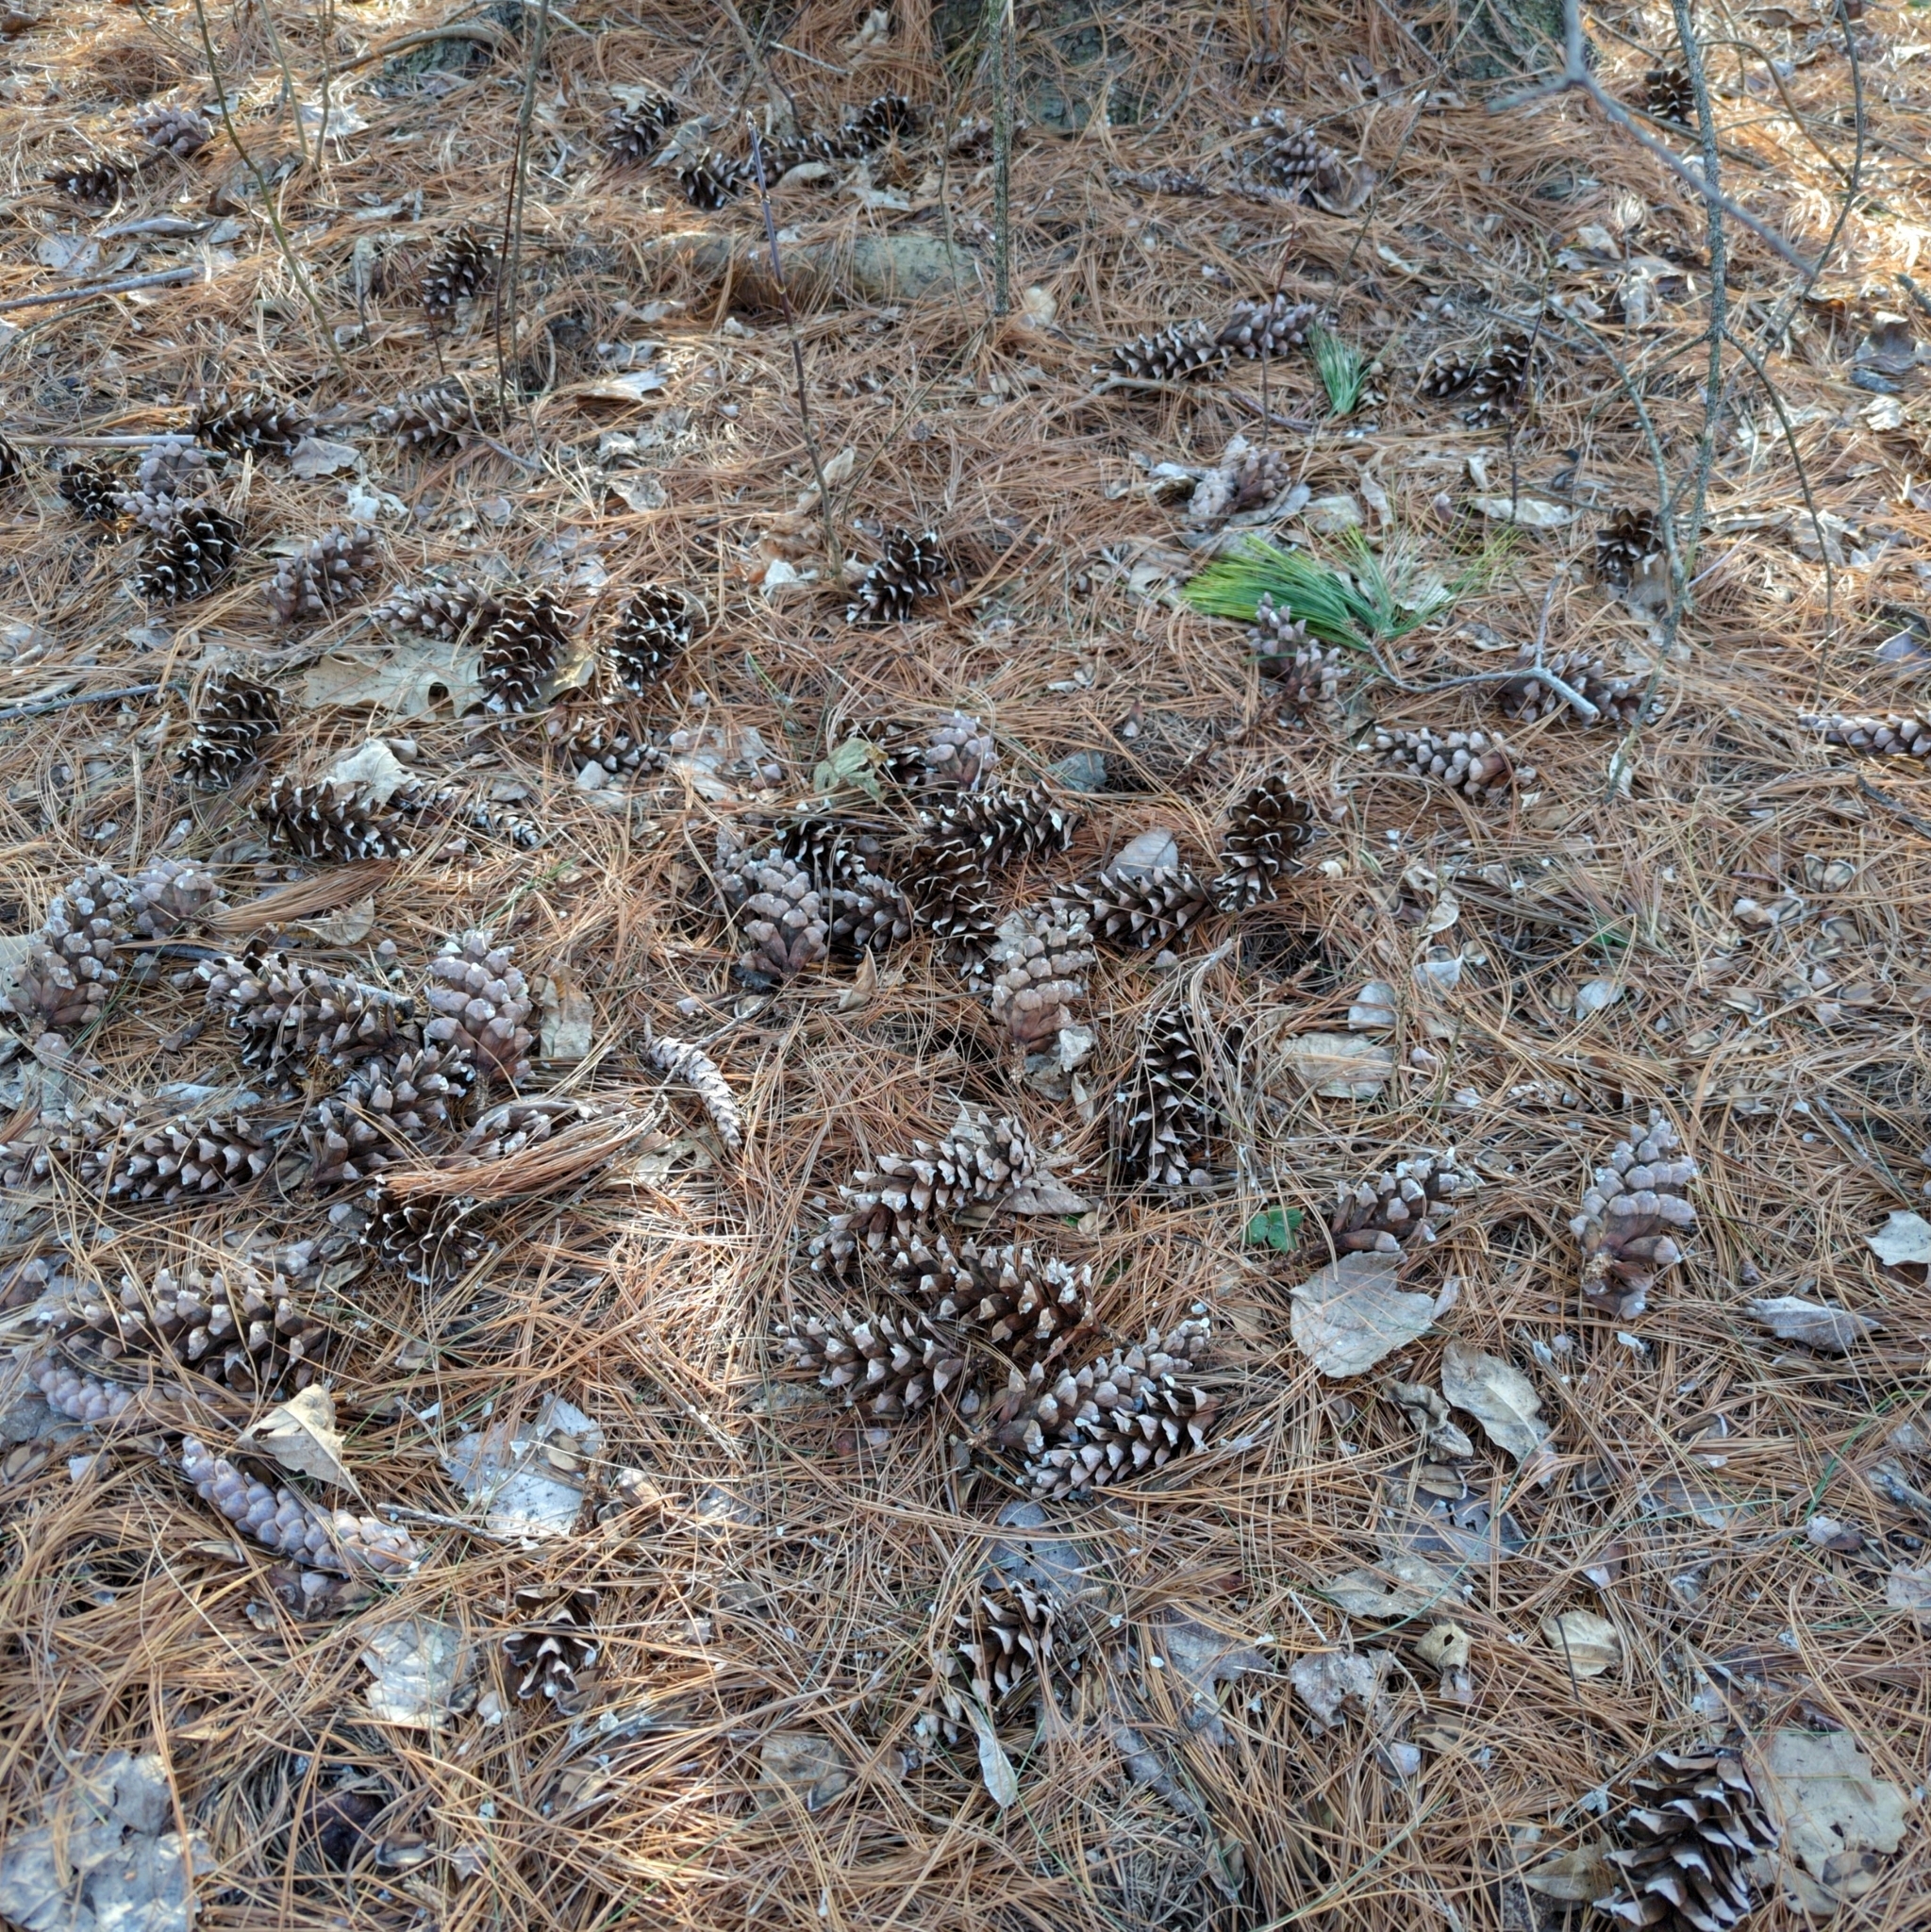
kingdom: Plantae
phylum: Tracheophyta
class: Pinopsida
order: Pinales
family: Pinaceae
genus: Pinus
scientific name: Pinus strobus
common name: Weymouth pine
